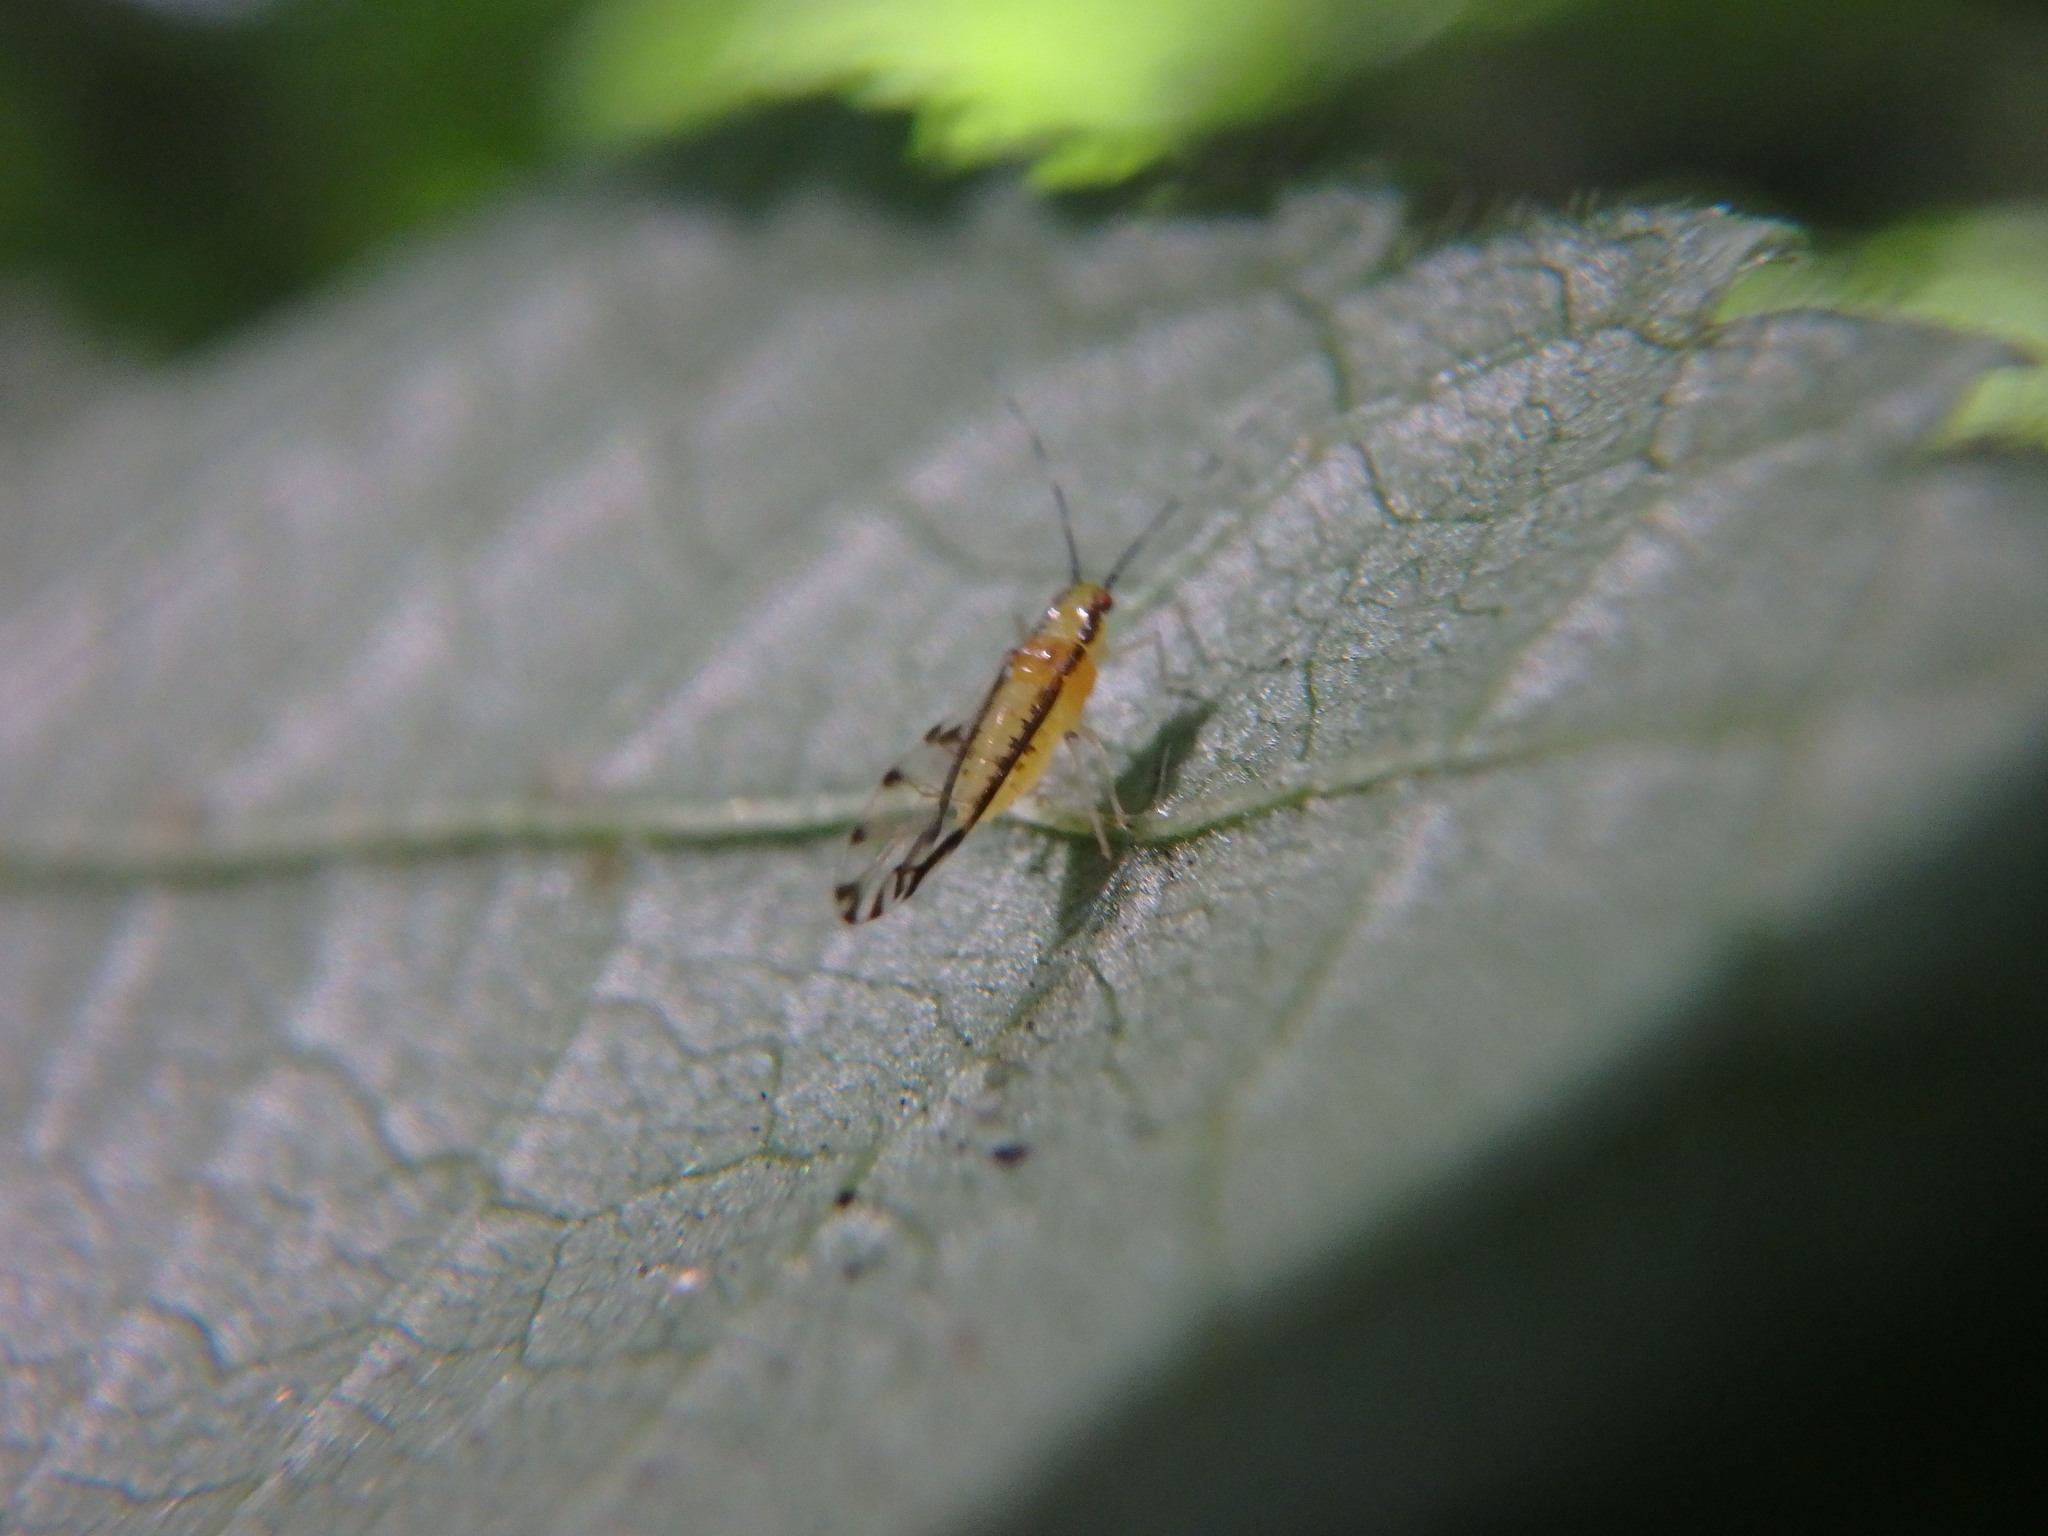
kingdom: Animalia
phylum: Arthropoda
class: Insecta
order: Hemiptera
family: Aphididae
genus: Eucallipterus
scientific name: Eucallipterus tiliae
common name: Aphid
